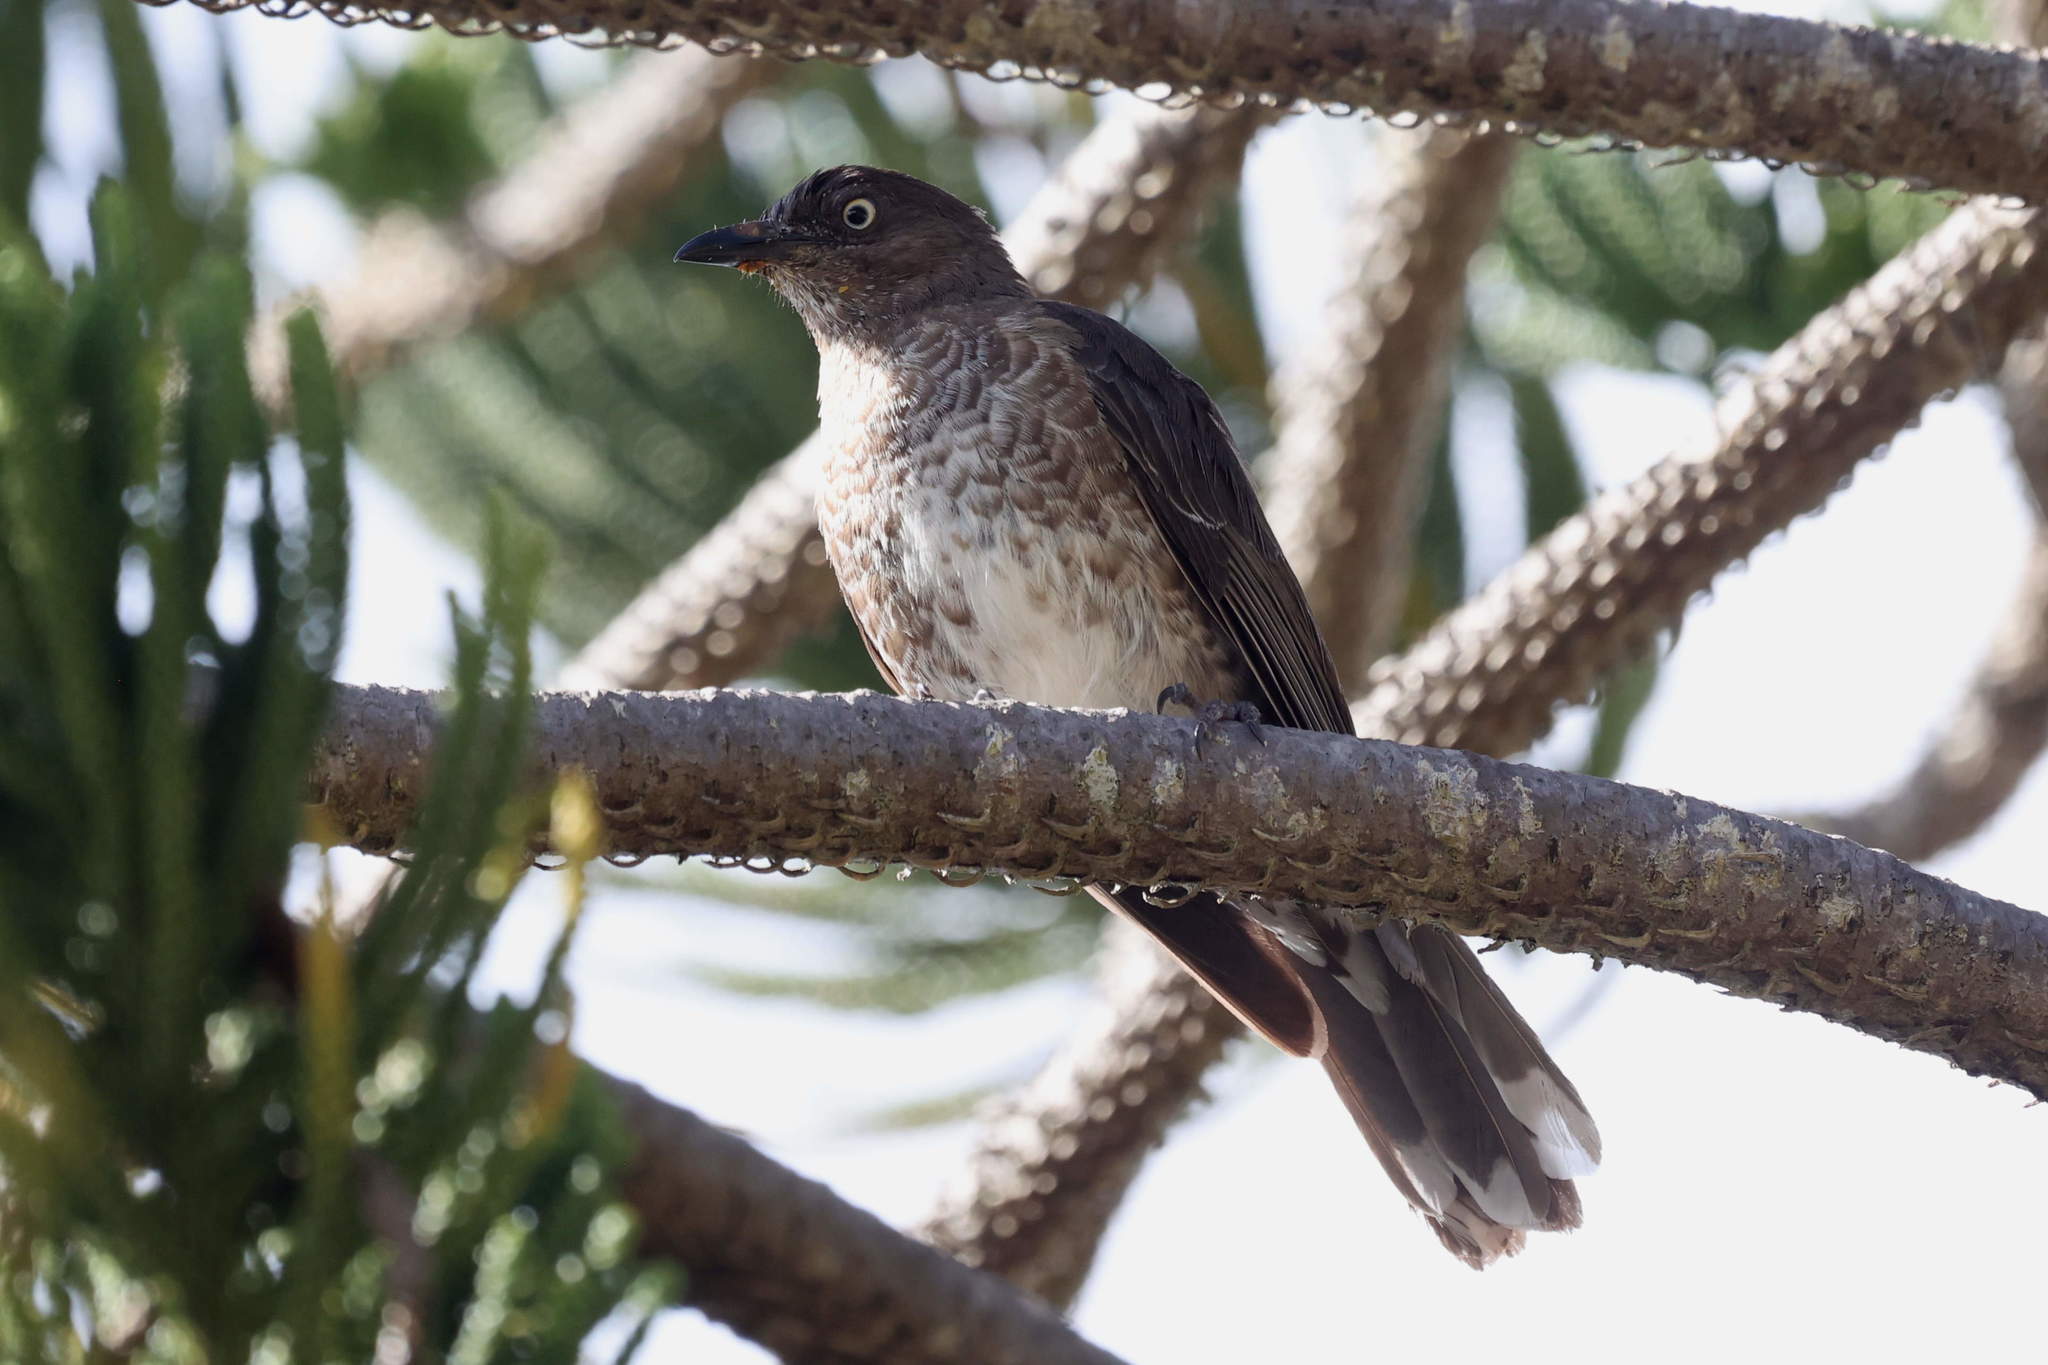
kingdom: Animalia
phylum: Chordata
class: Aves
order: Passeriformes
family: Mimidae
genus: Allenia
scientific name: Allenia fusca
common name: Scaly-breasted thrasher
